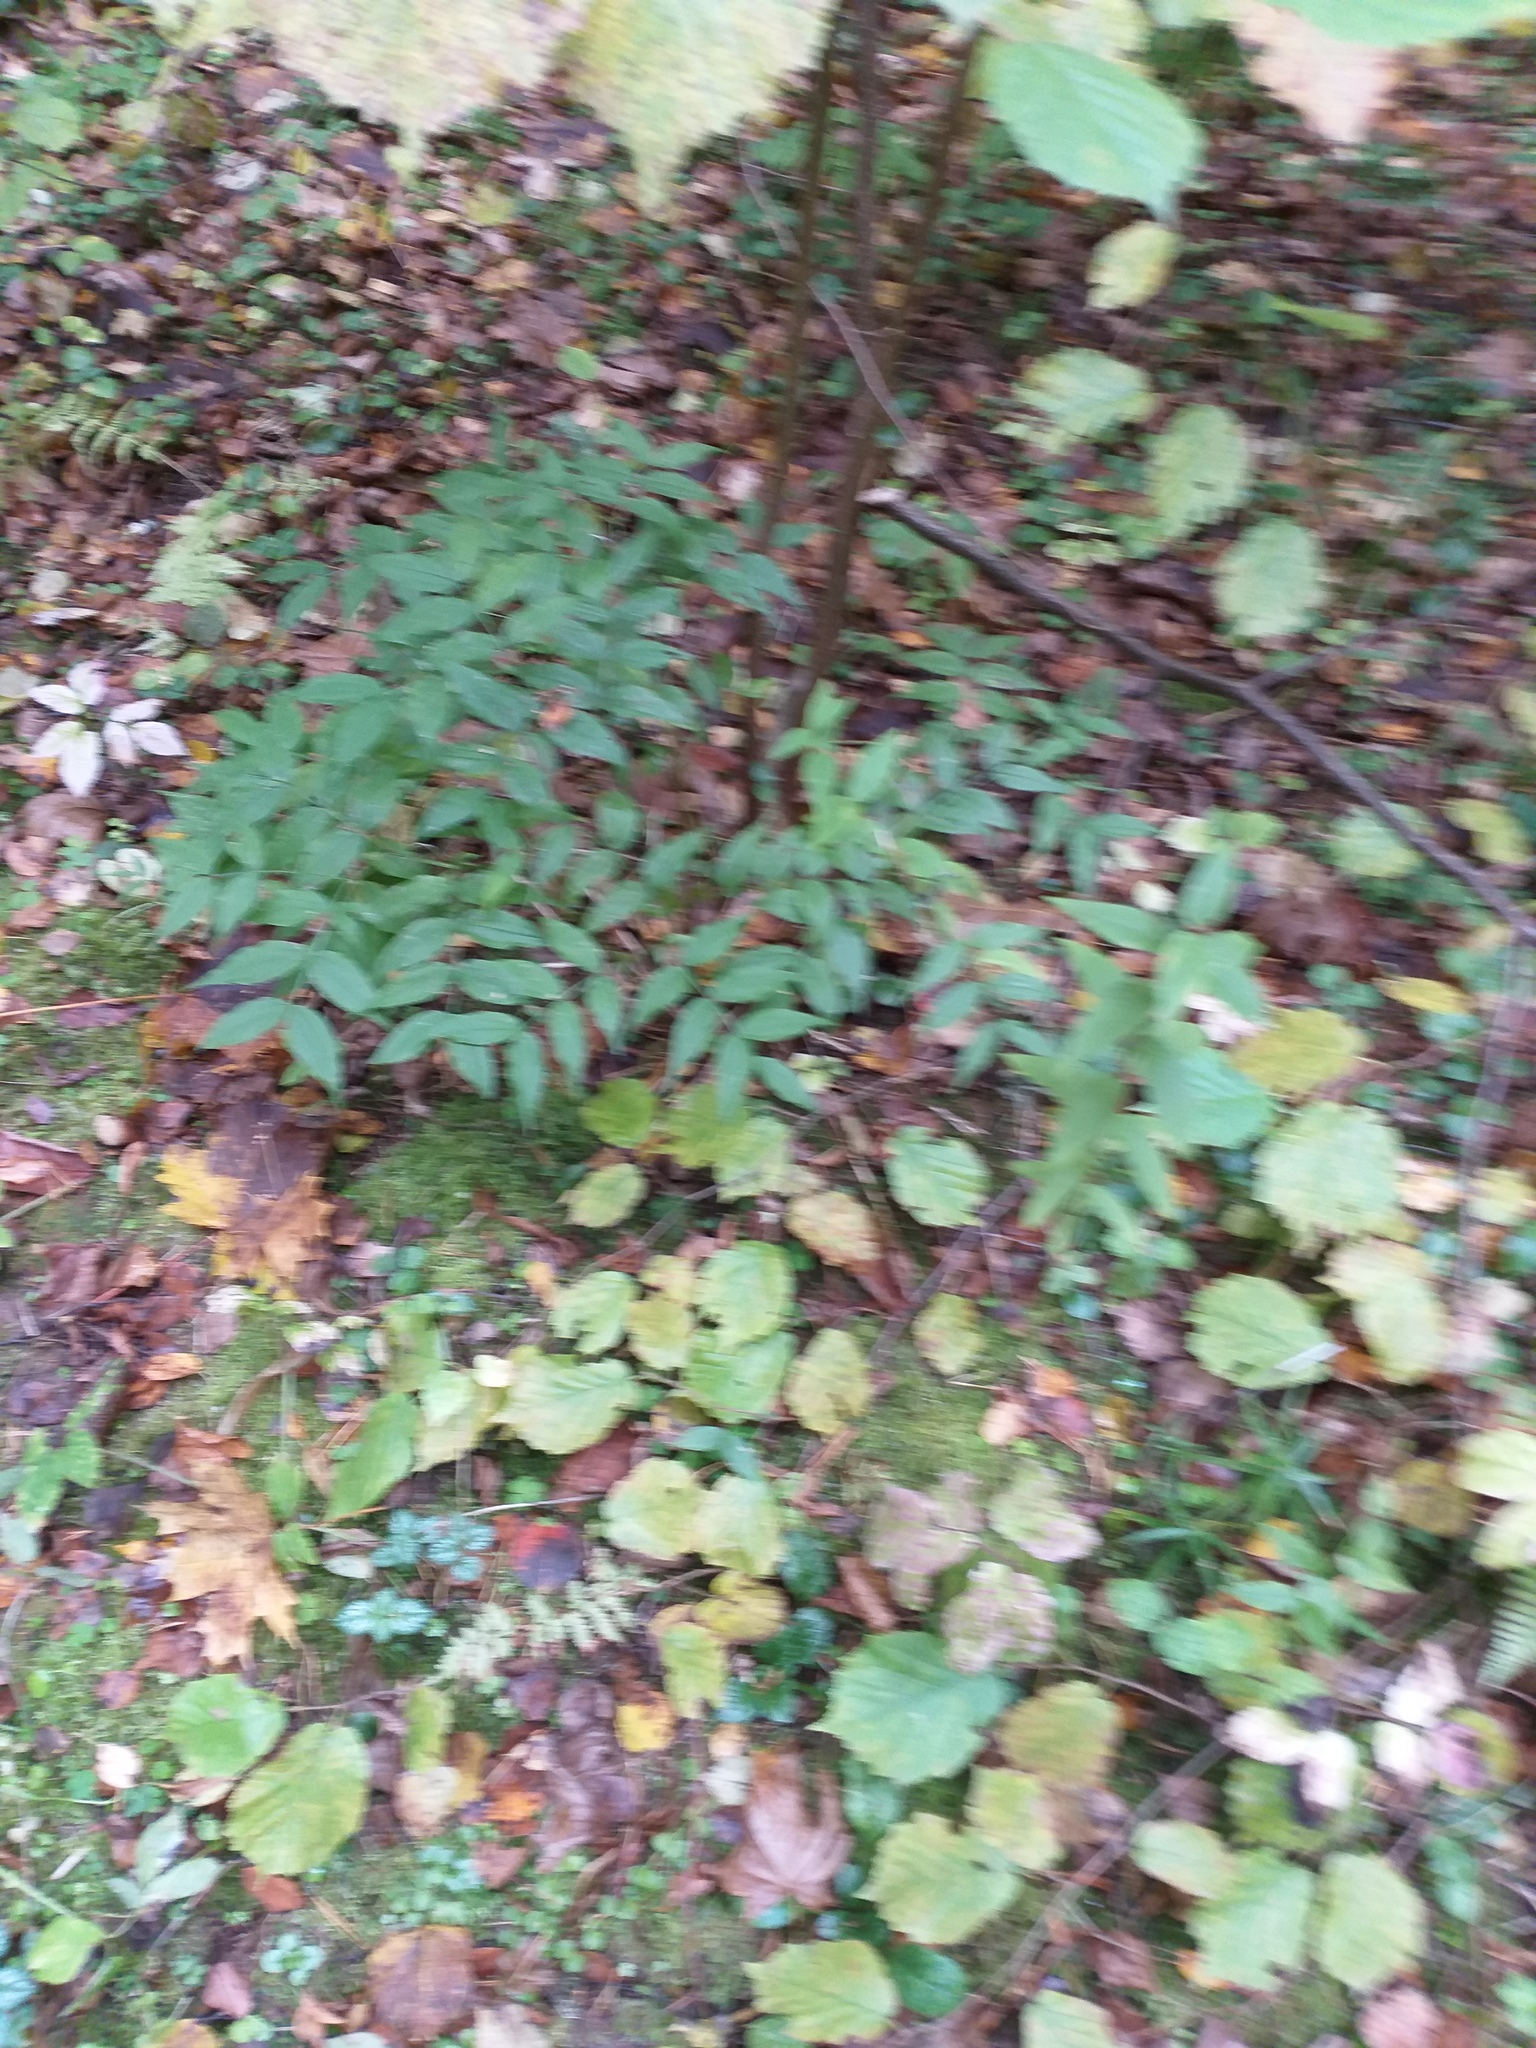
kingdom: Plantae
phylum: Tracheophyta
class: Magnoliopsida
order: Fabales
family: Fabaceae
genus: Lathyrus
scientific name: Lathyrus vernus
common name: Spring pea
